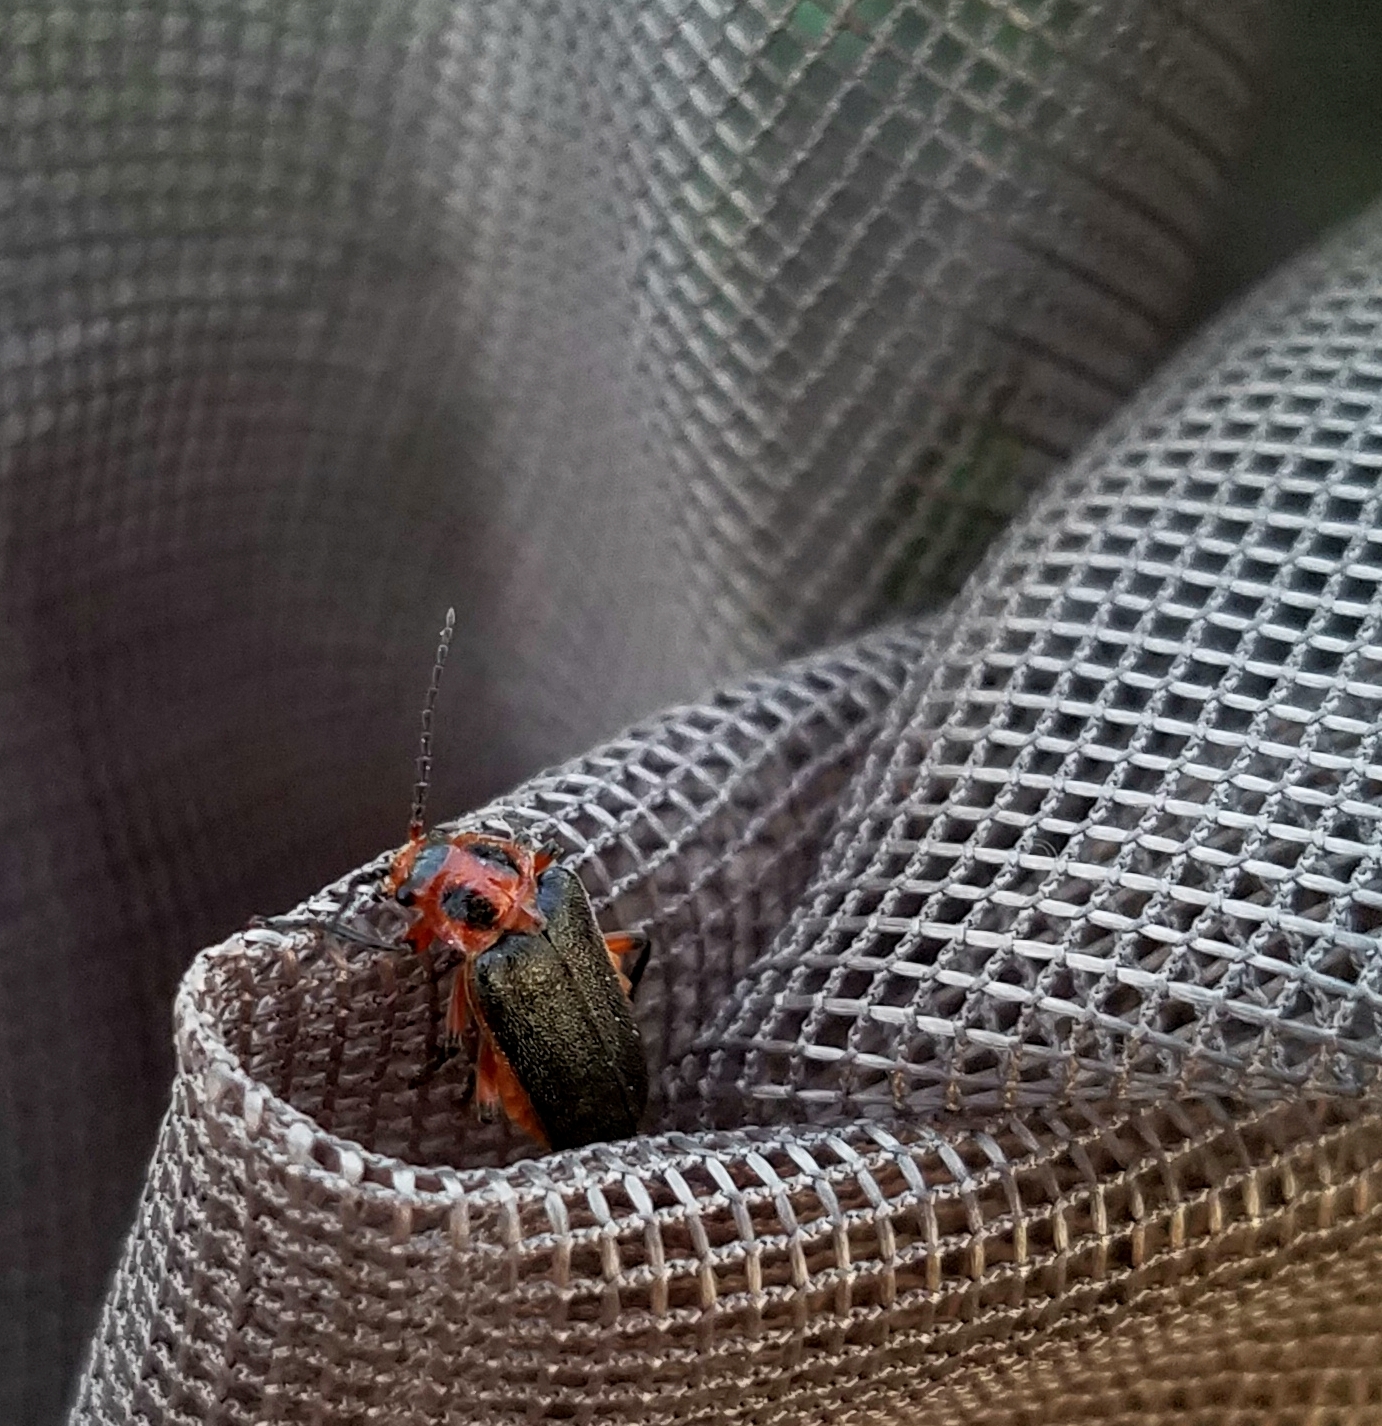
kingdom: Animalia
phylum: Arthropoda
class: Insecta
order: Coleoptera
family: Cantharidae
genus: Atalantycha
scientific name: Atalantycha bilineata
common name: Two-lined leatherwing
